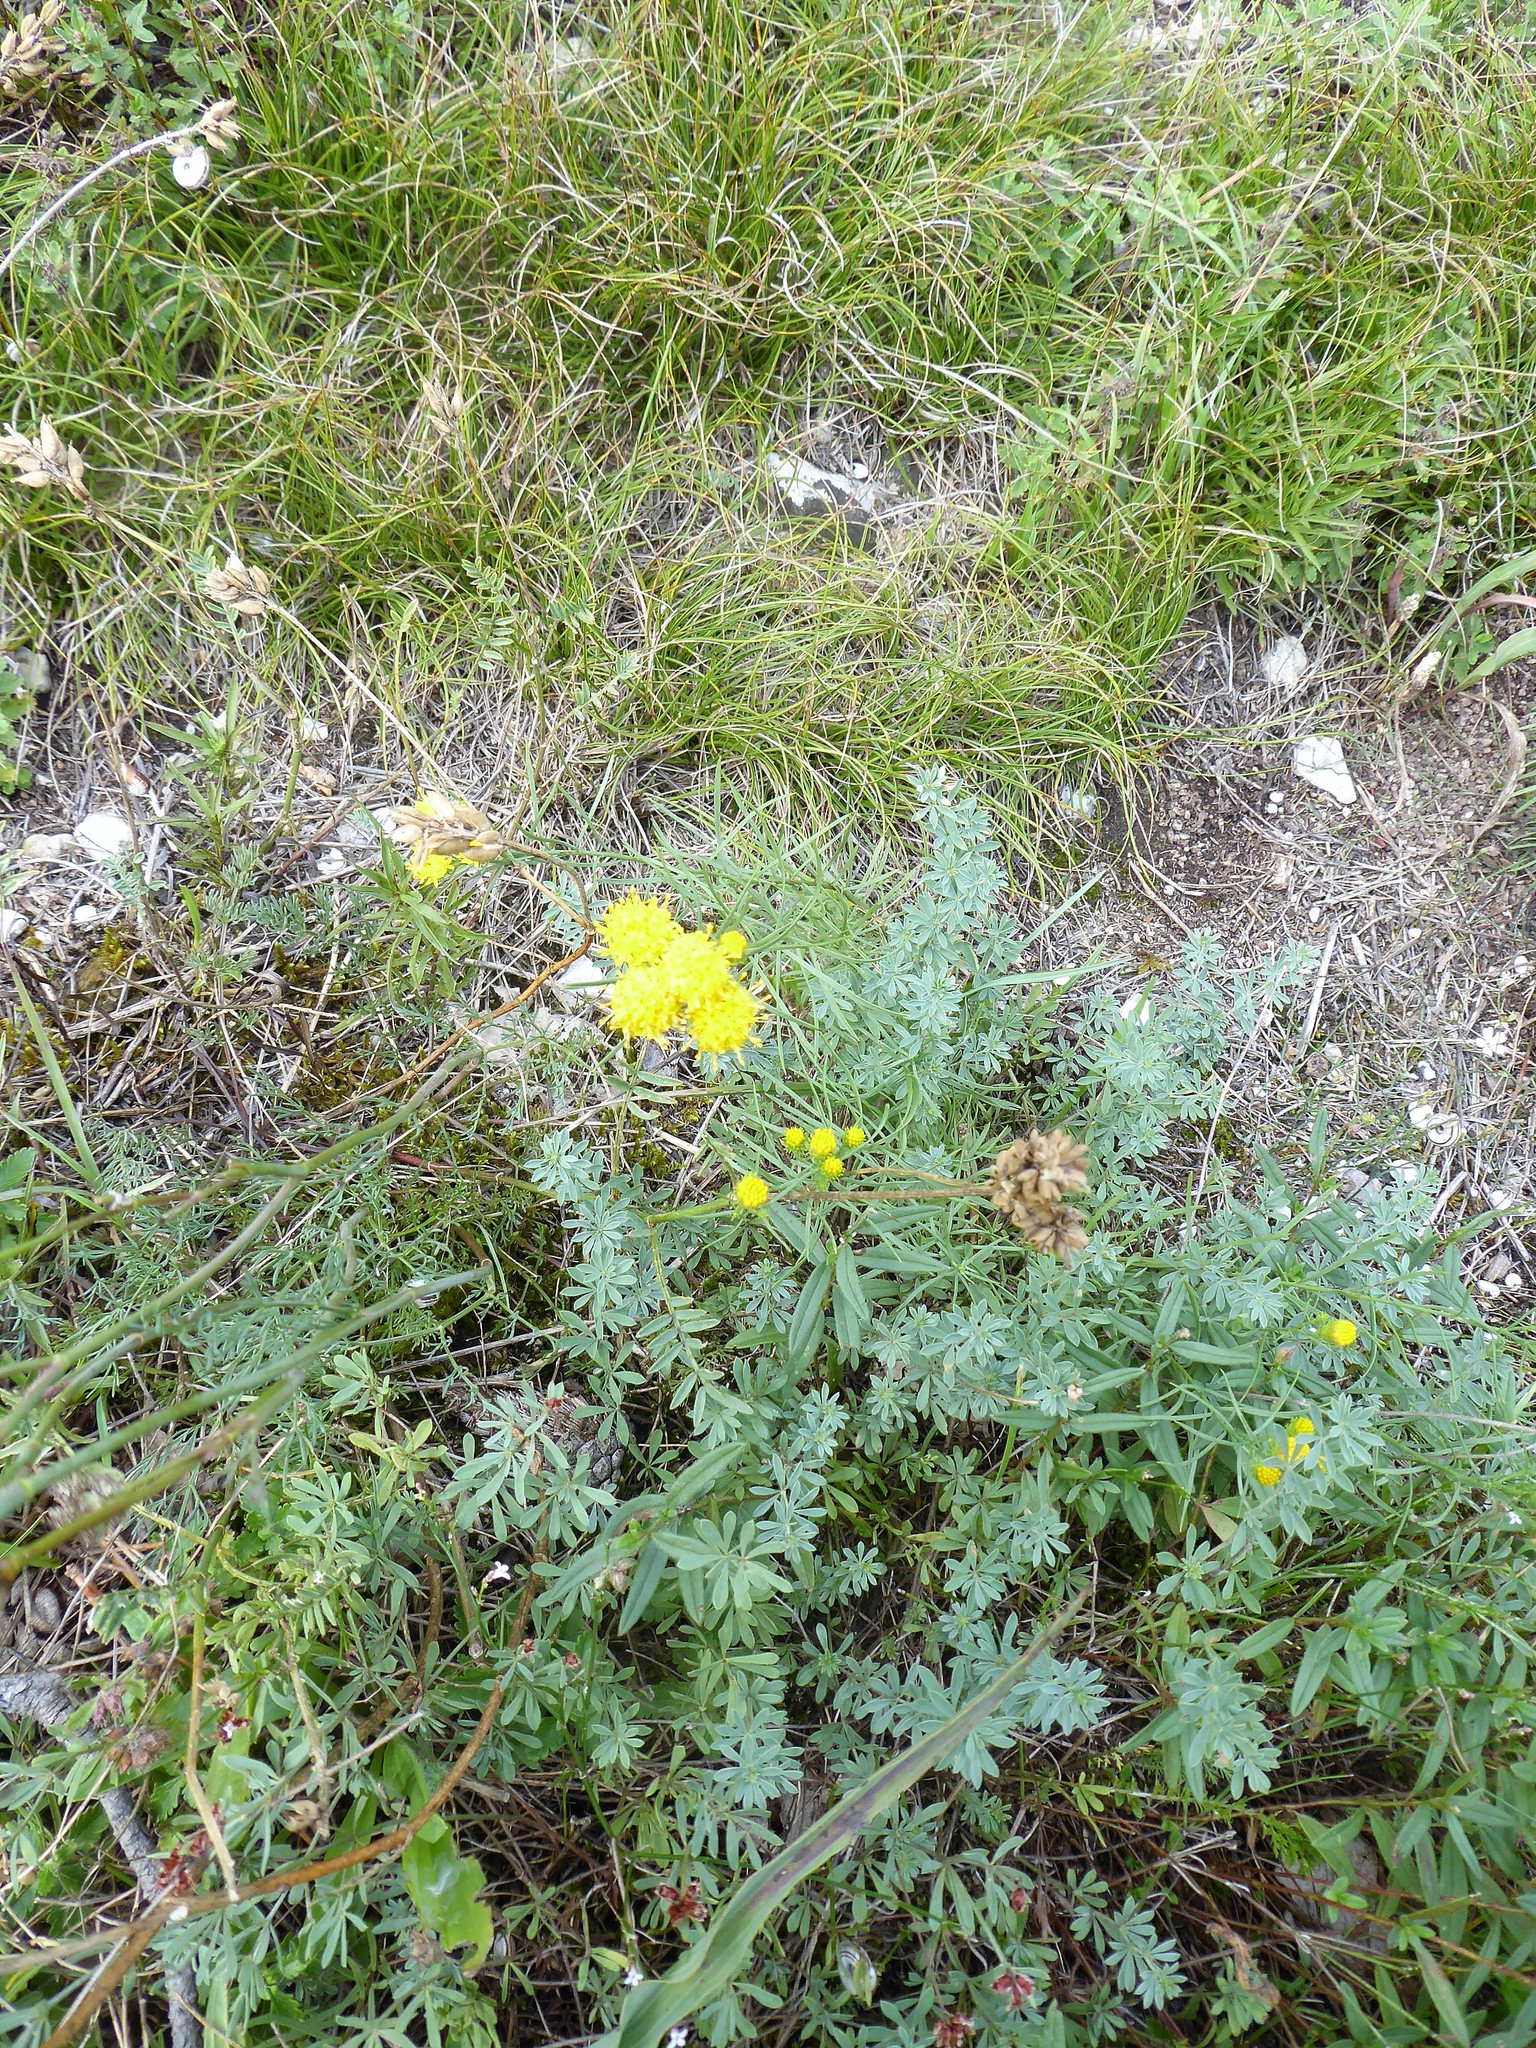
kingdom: Plantae
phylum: Tracheophyta
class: Magnoliopsida
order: Asterales
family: Asteraceae
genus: Galatella
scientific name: Galatella linosyris
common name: Goldilocks aster
